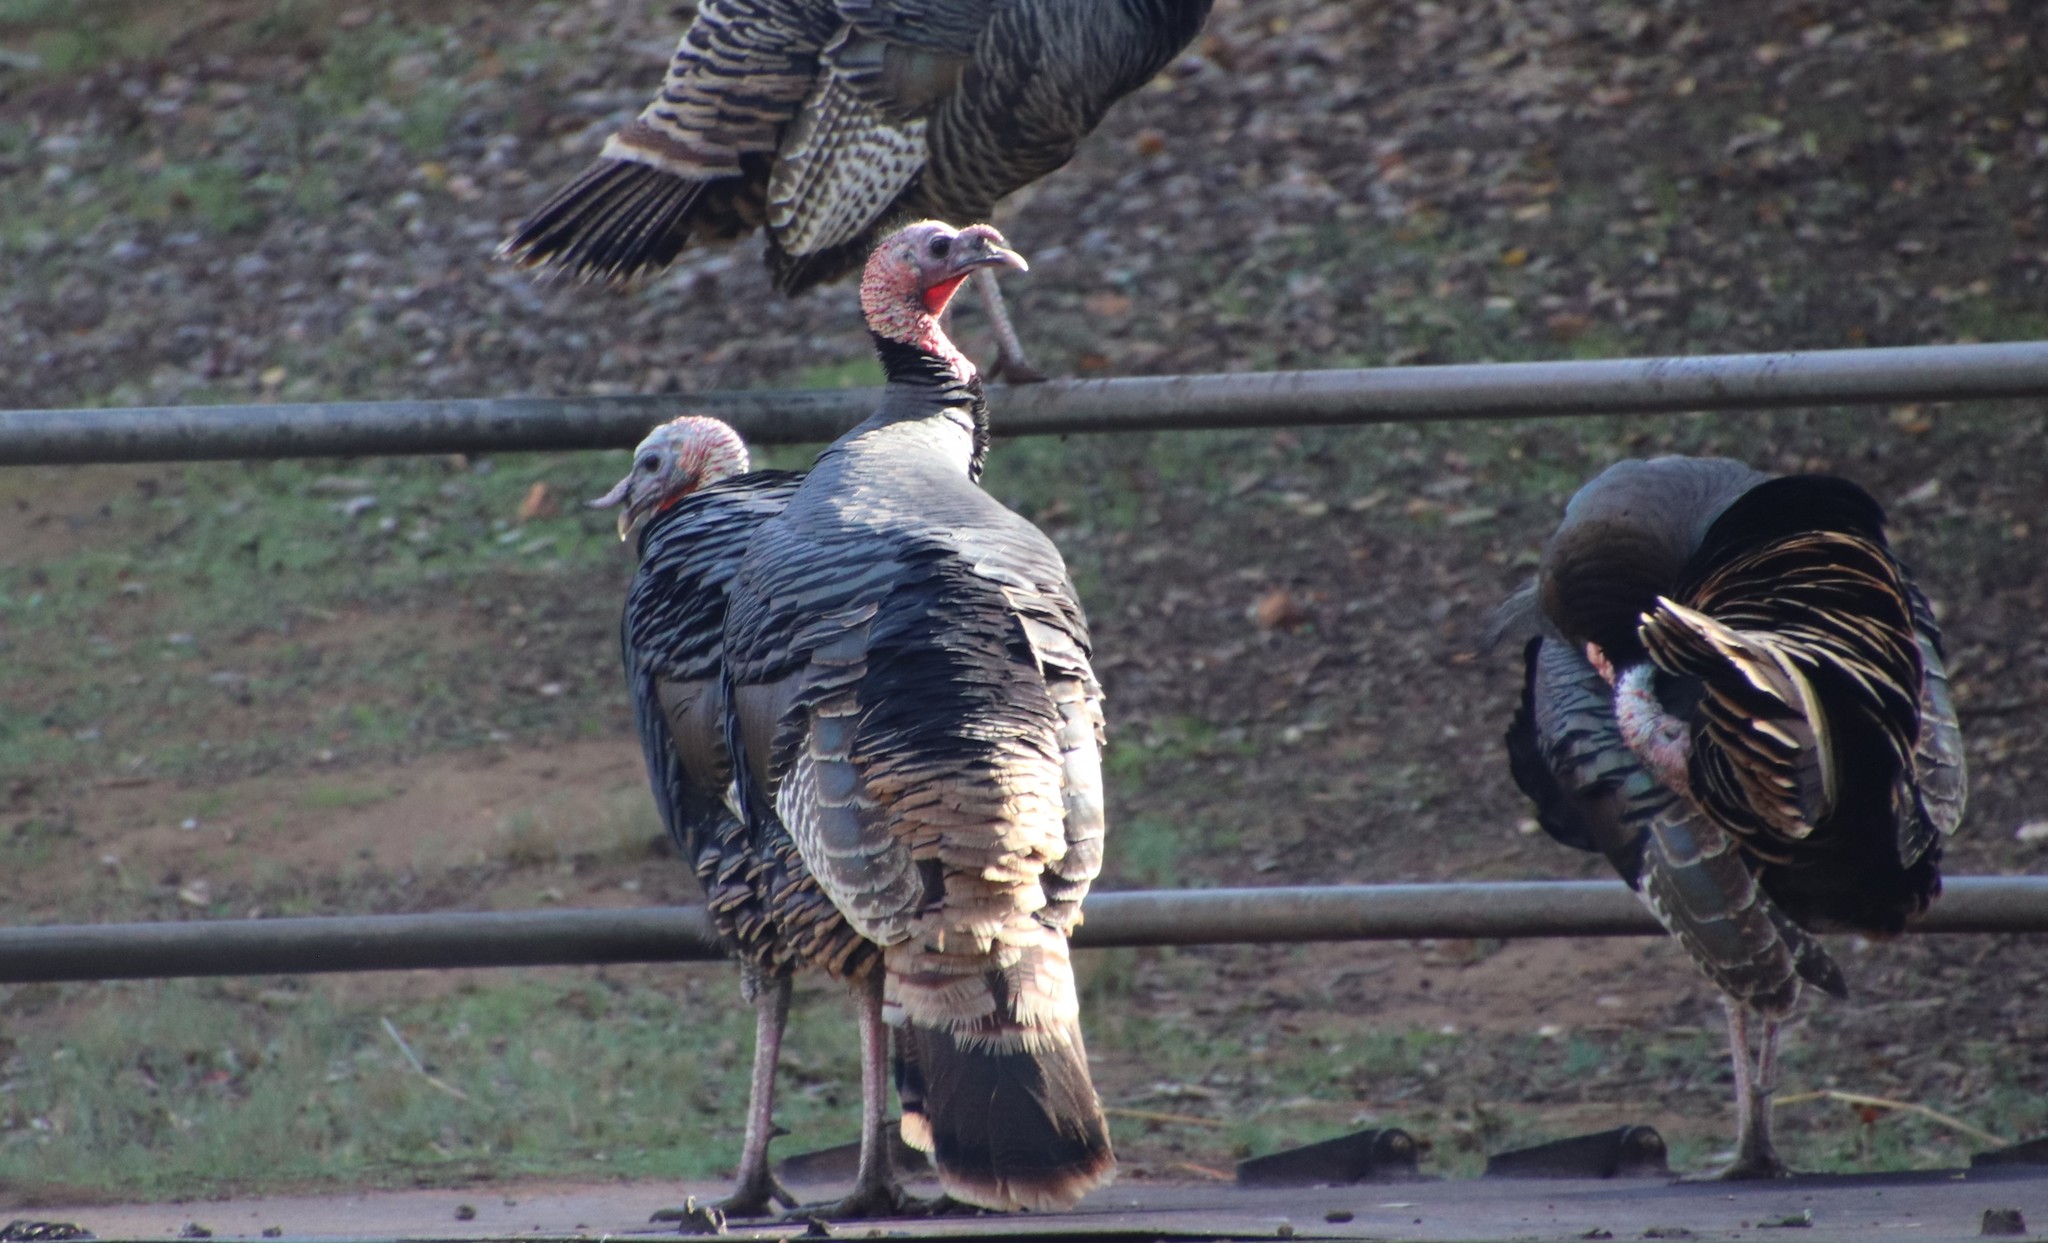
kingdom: Animalia
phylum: Chordata
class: Aves
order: Galliformes
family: Phasianidae
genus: Meleagris
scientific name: Meleagris gallopavo
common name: Wild turkey
